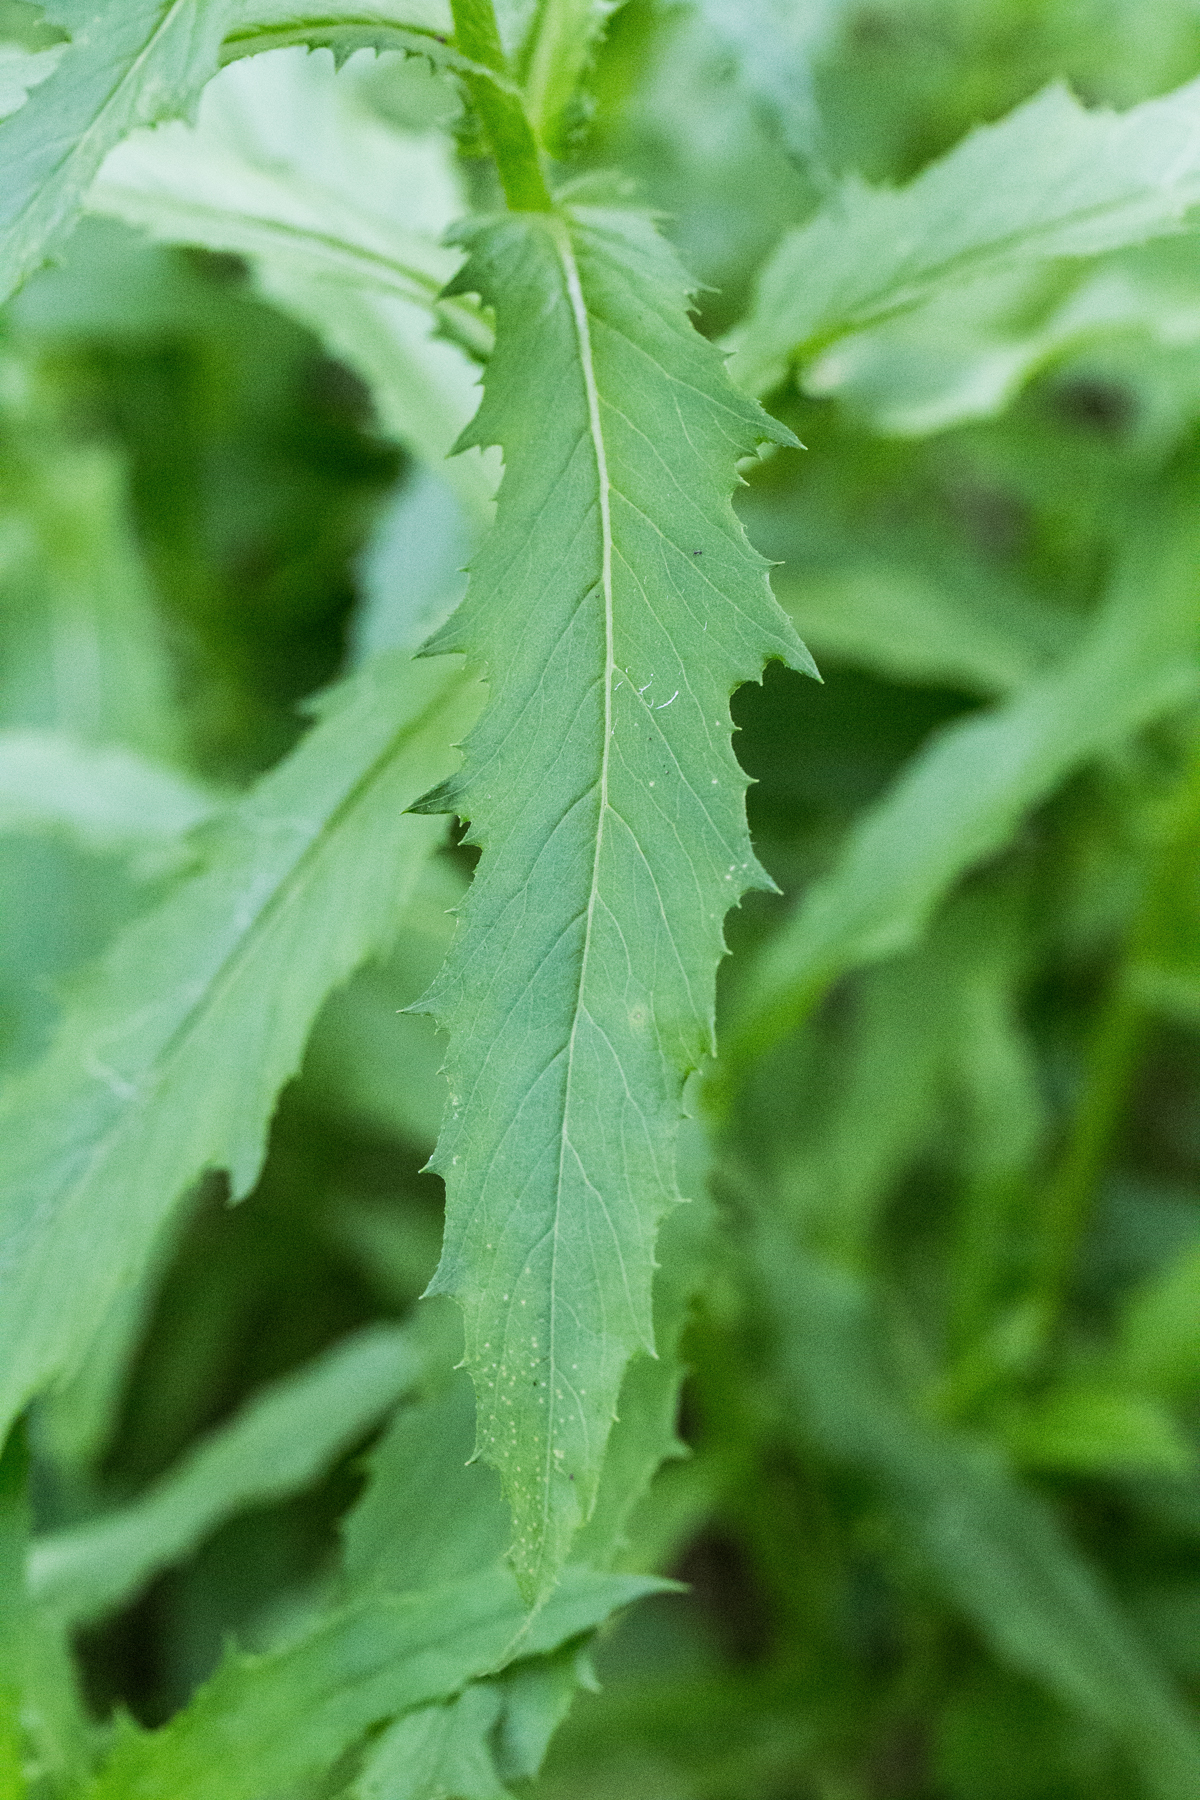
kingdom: Plantae
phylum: Tracheophyta
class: Magnoliopsida
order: Asterales
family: Asteraceae
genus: Erechtites
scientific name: Erechtites hieraciifolius
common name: American burnweed
